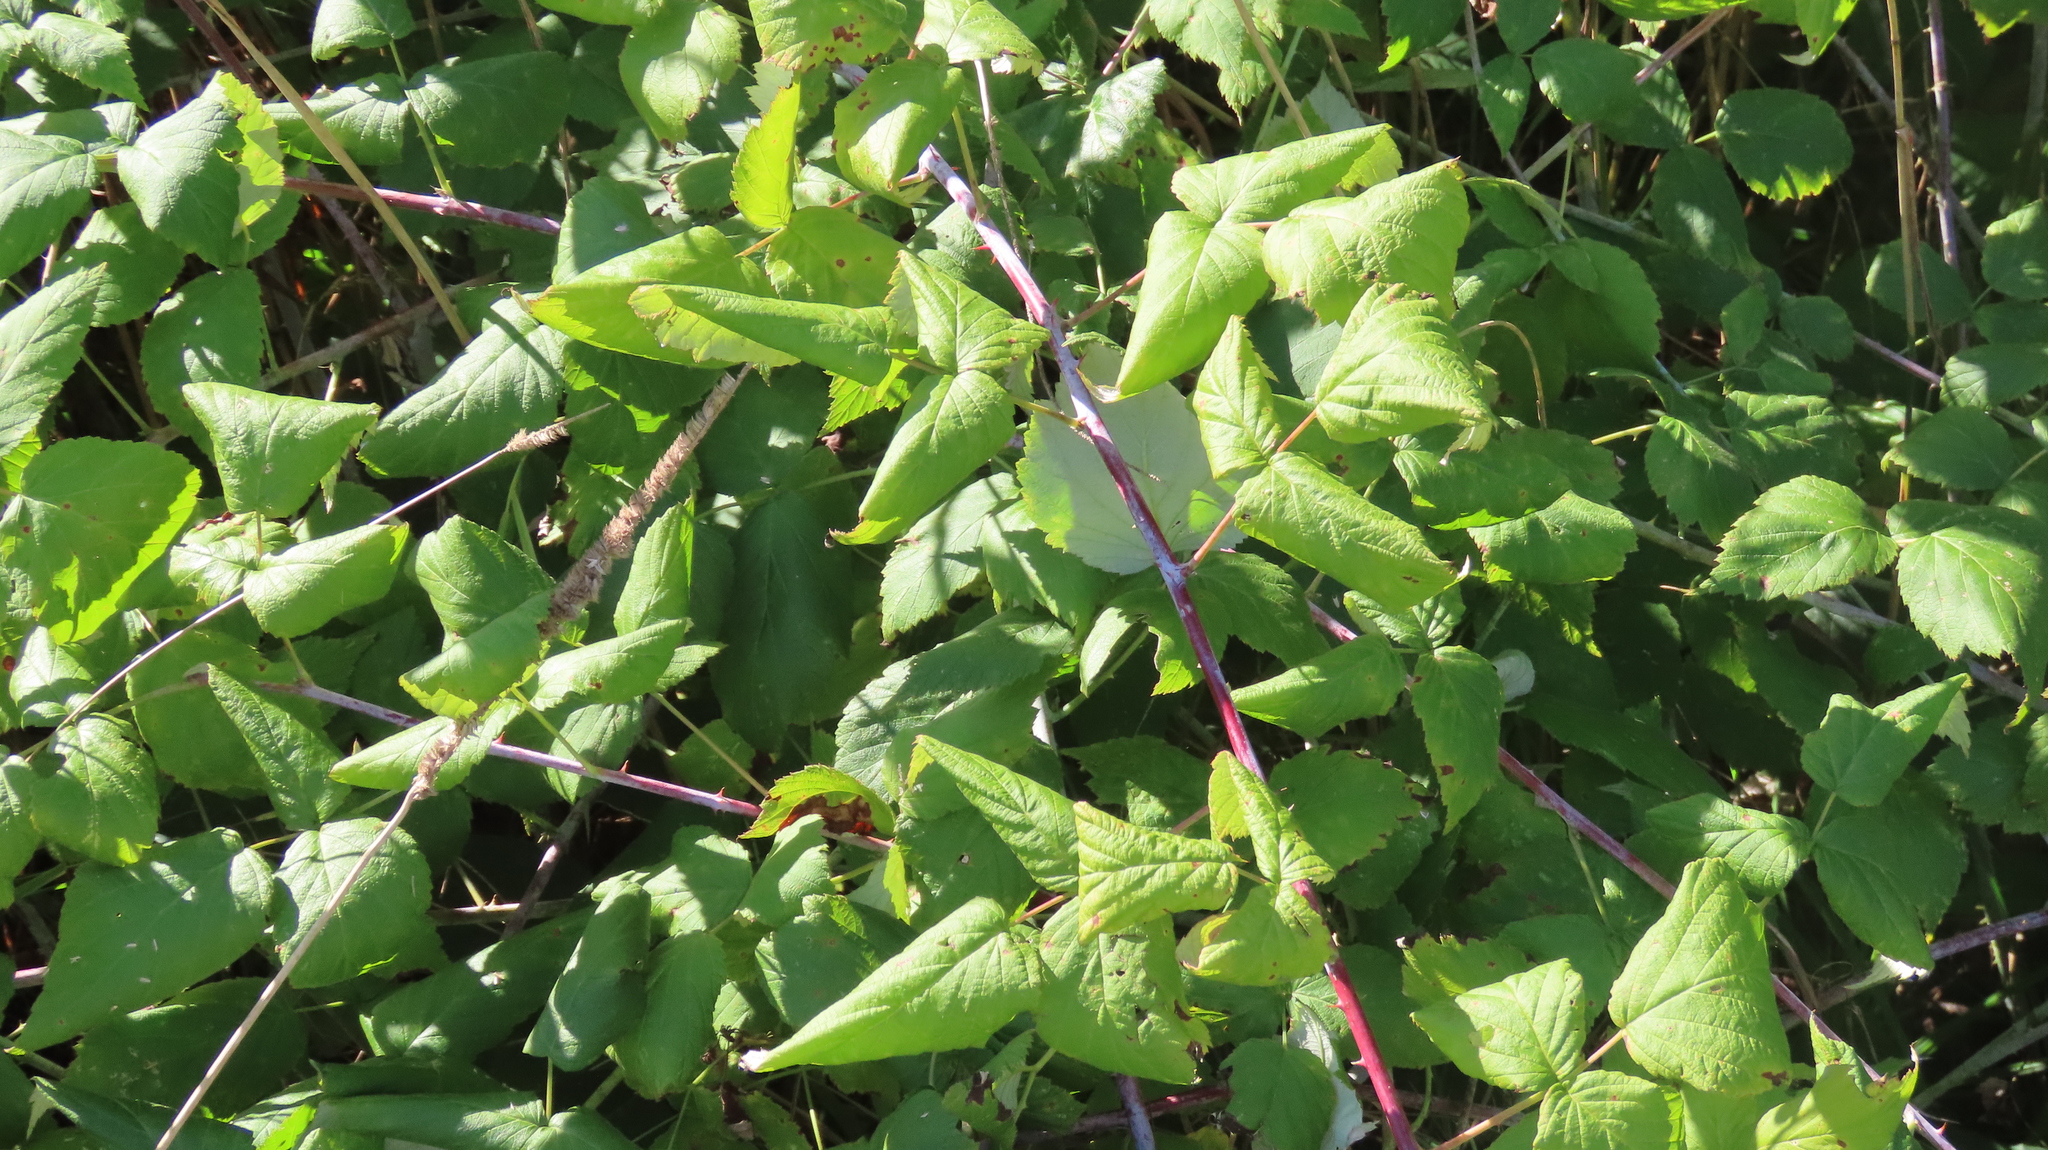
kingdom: Plantae
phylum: Tracheophyta
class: Magnoliopsida
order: Rosales
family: Rosaceae
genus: Rubus
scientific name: Rubus occidentalis
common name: Black raspberry
